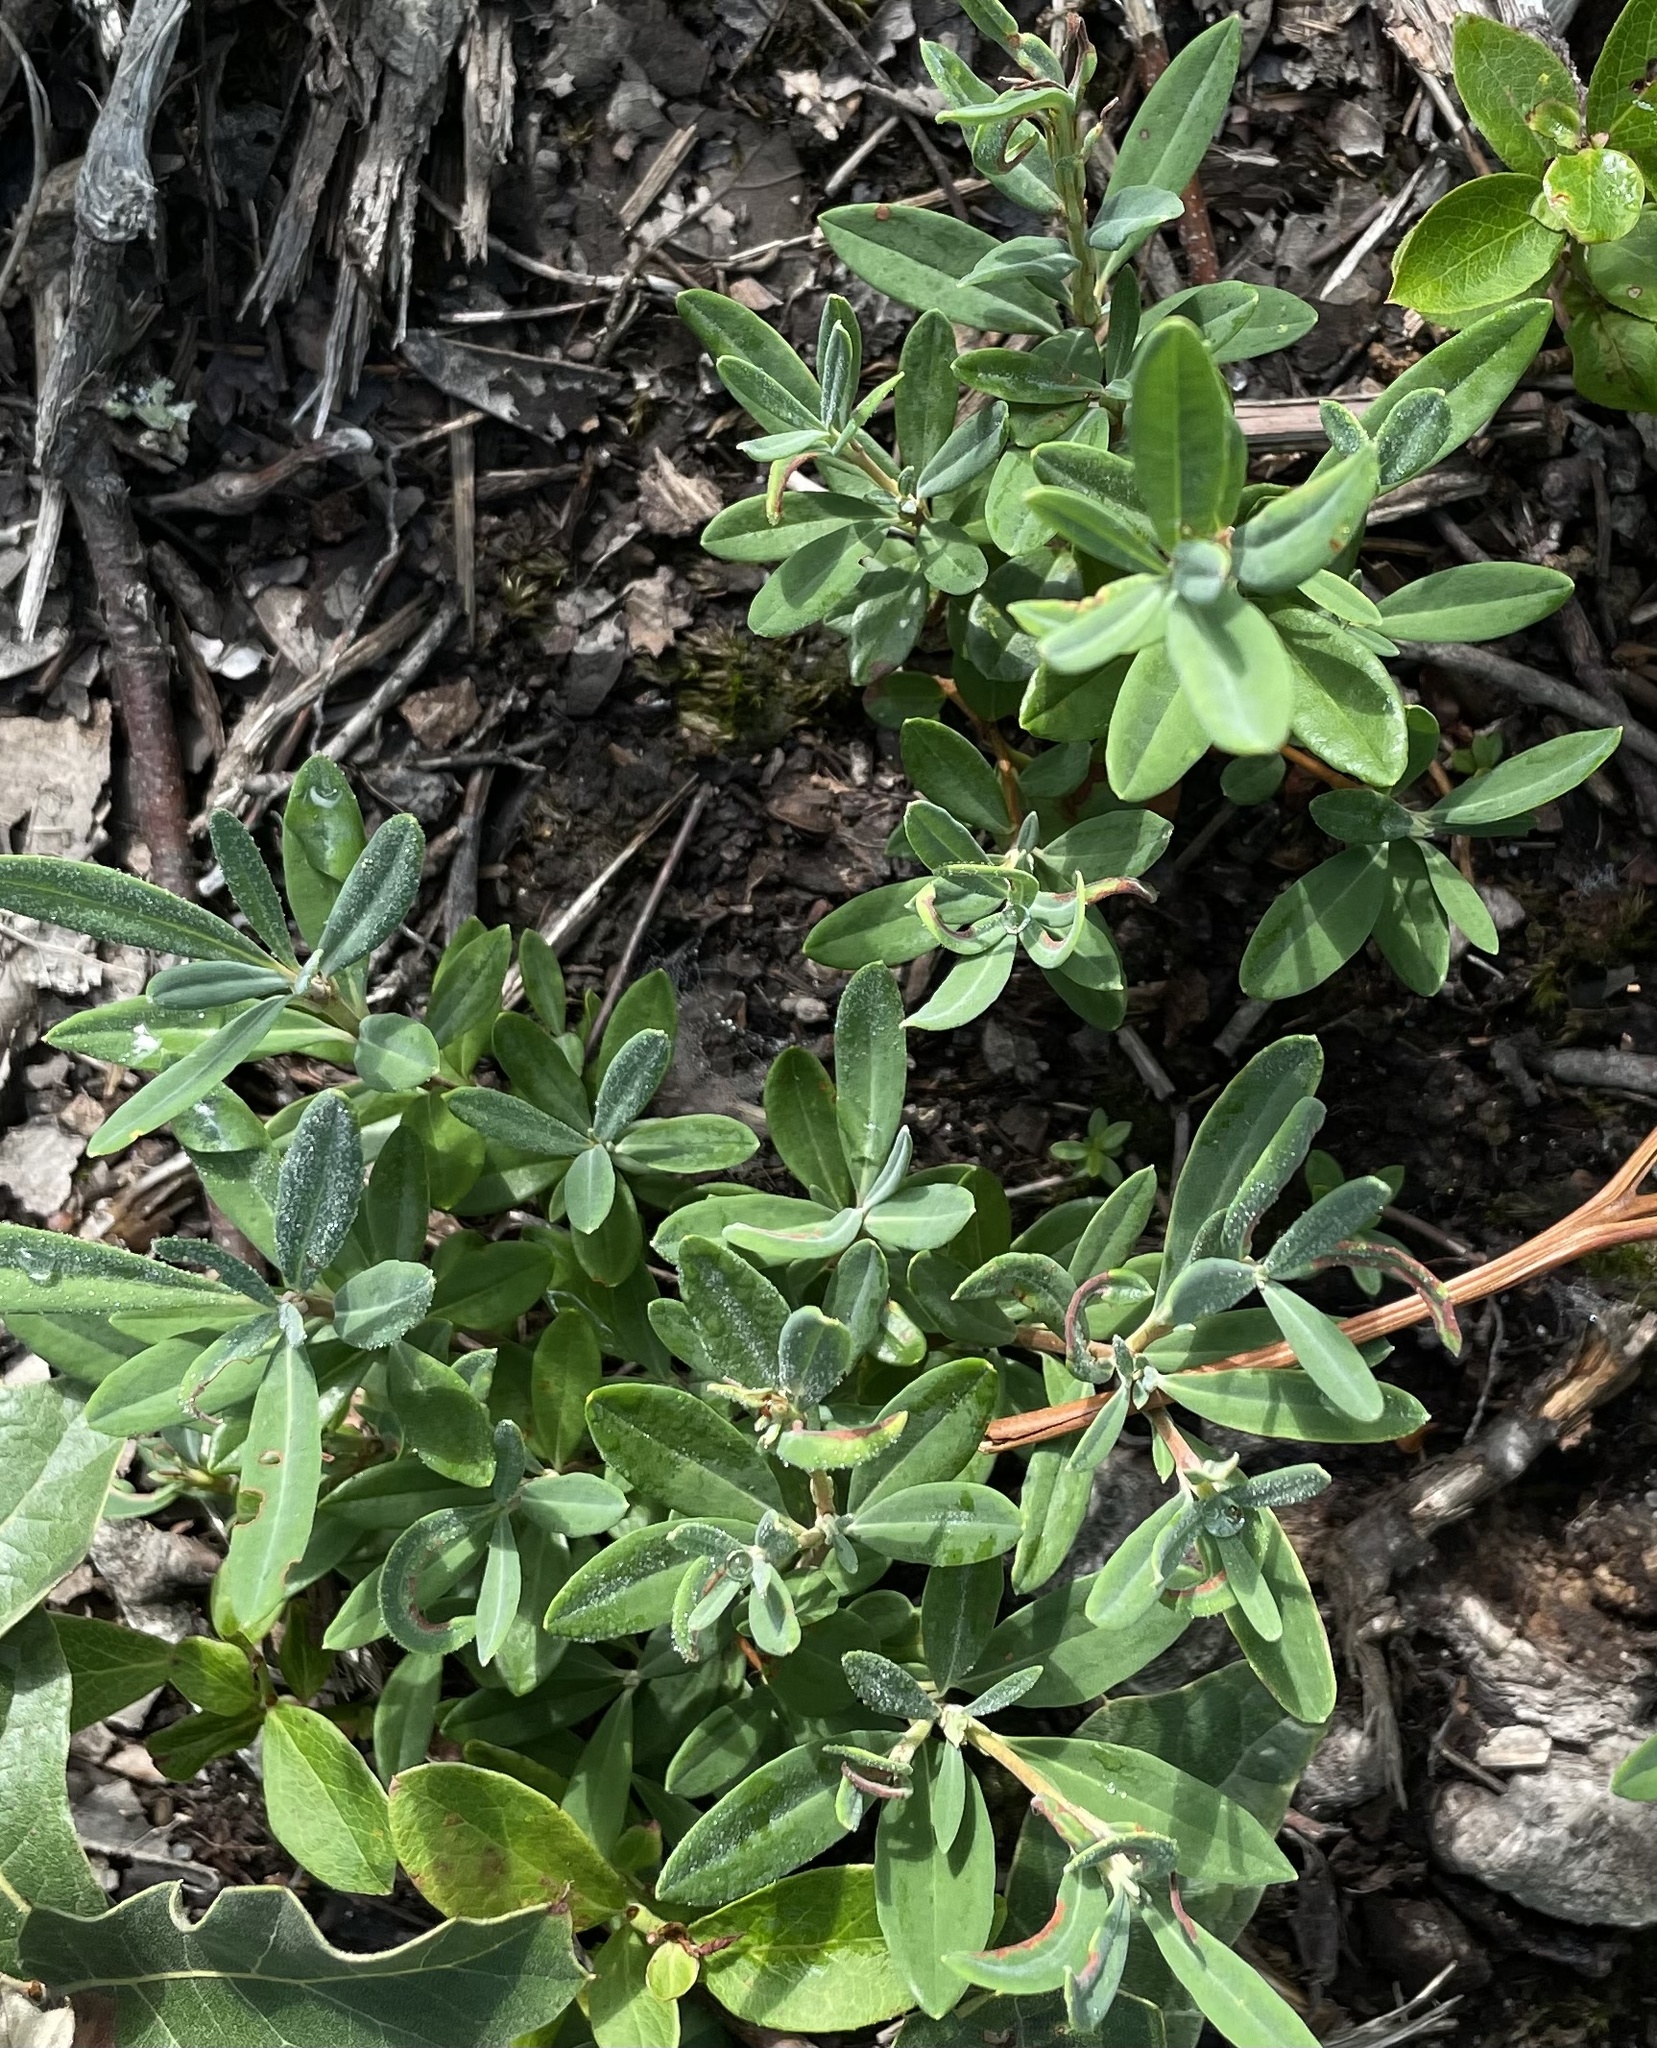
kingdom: Plantae
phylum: Tracheophyta
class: Magnoliopsida
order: Ericales
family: Ericaceae
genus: Kalmia
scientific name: Kalmia angustifolia
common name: Sheep-laurel
